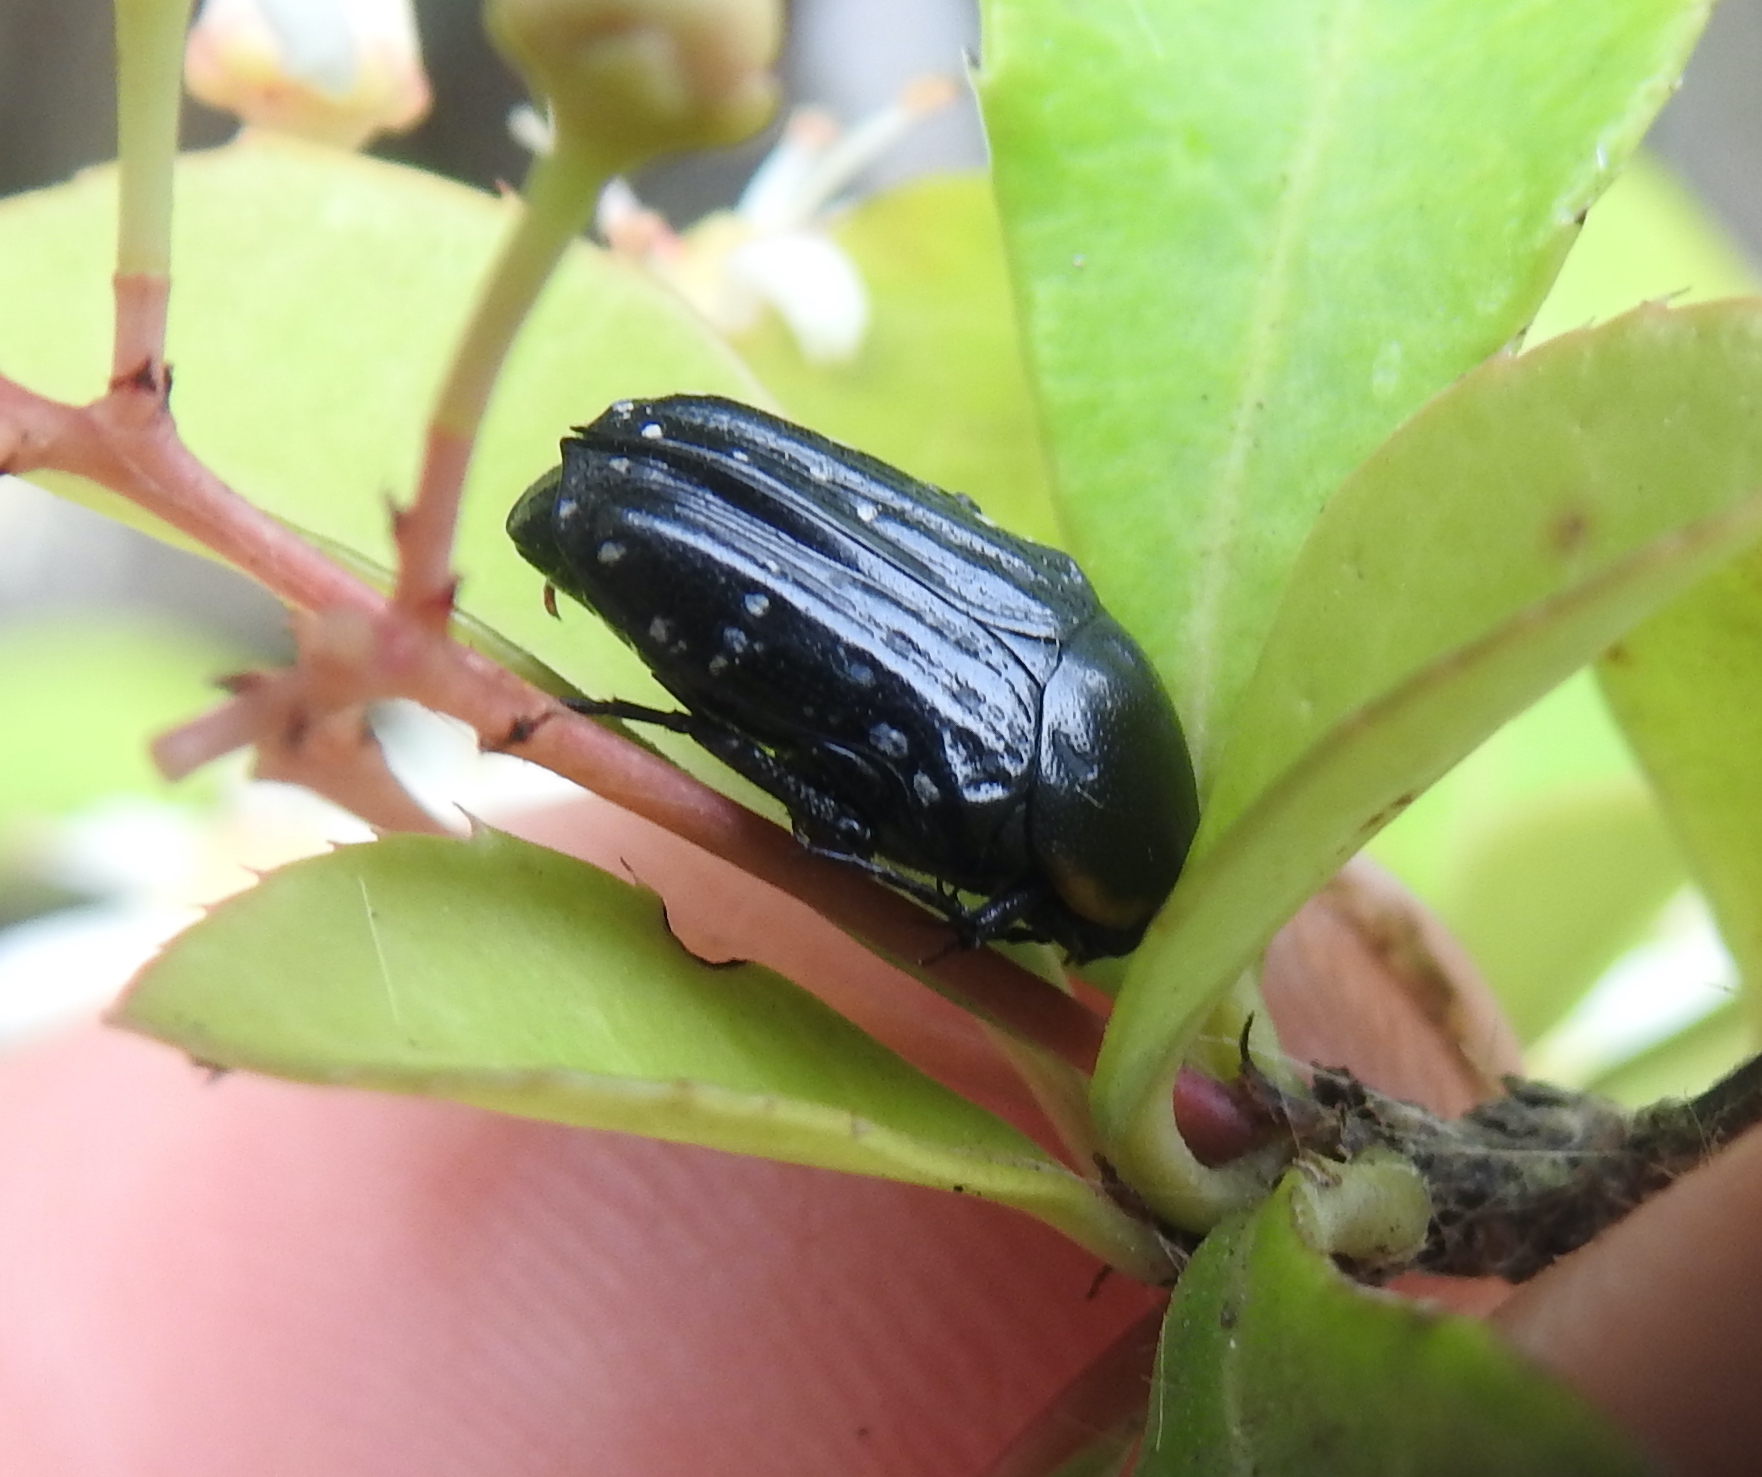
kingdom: Animalia
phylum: Arthropoda
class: Insecta
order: Coleoptera
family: Scarabaeidae
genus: Oxythyrea
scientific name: Oxythyrea
